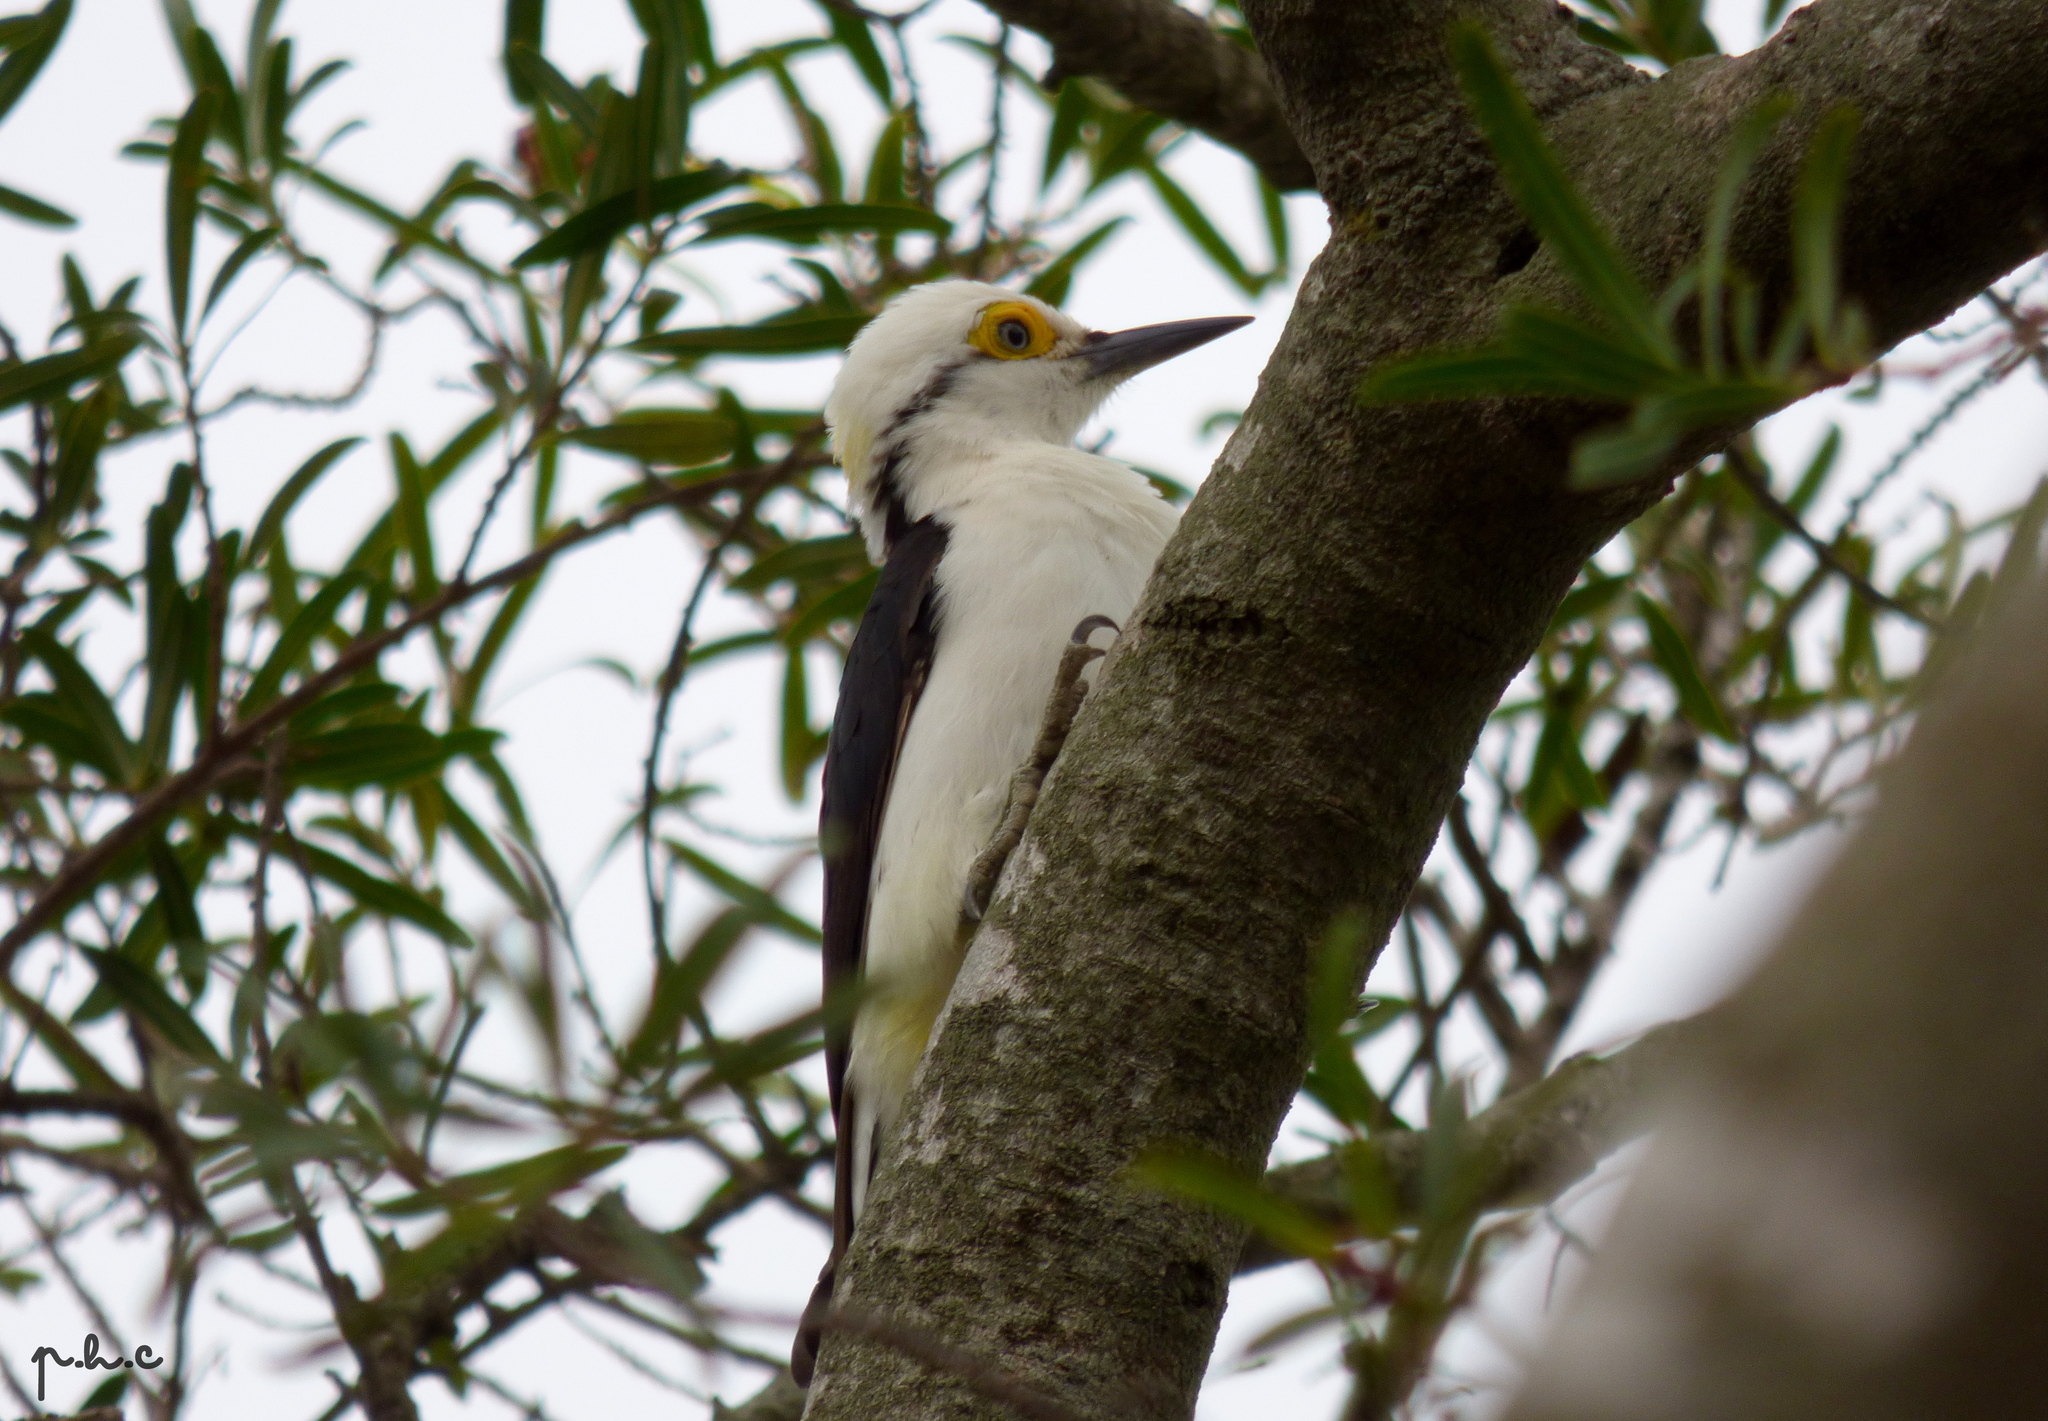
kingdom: Animalia
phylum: Chordata
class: Aves
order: Piciformes
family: Picidae
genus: Melanerpes
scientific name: Melanerpes candidus
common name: White woodpecker
